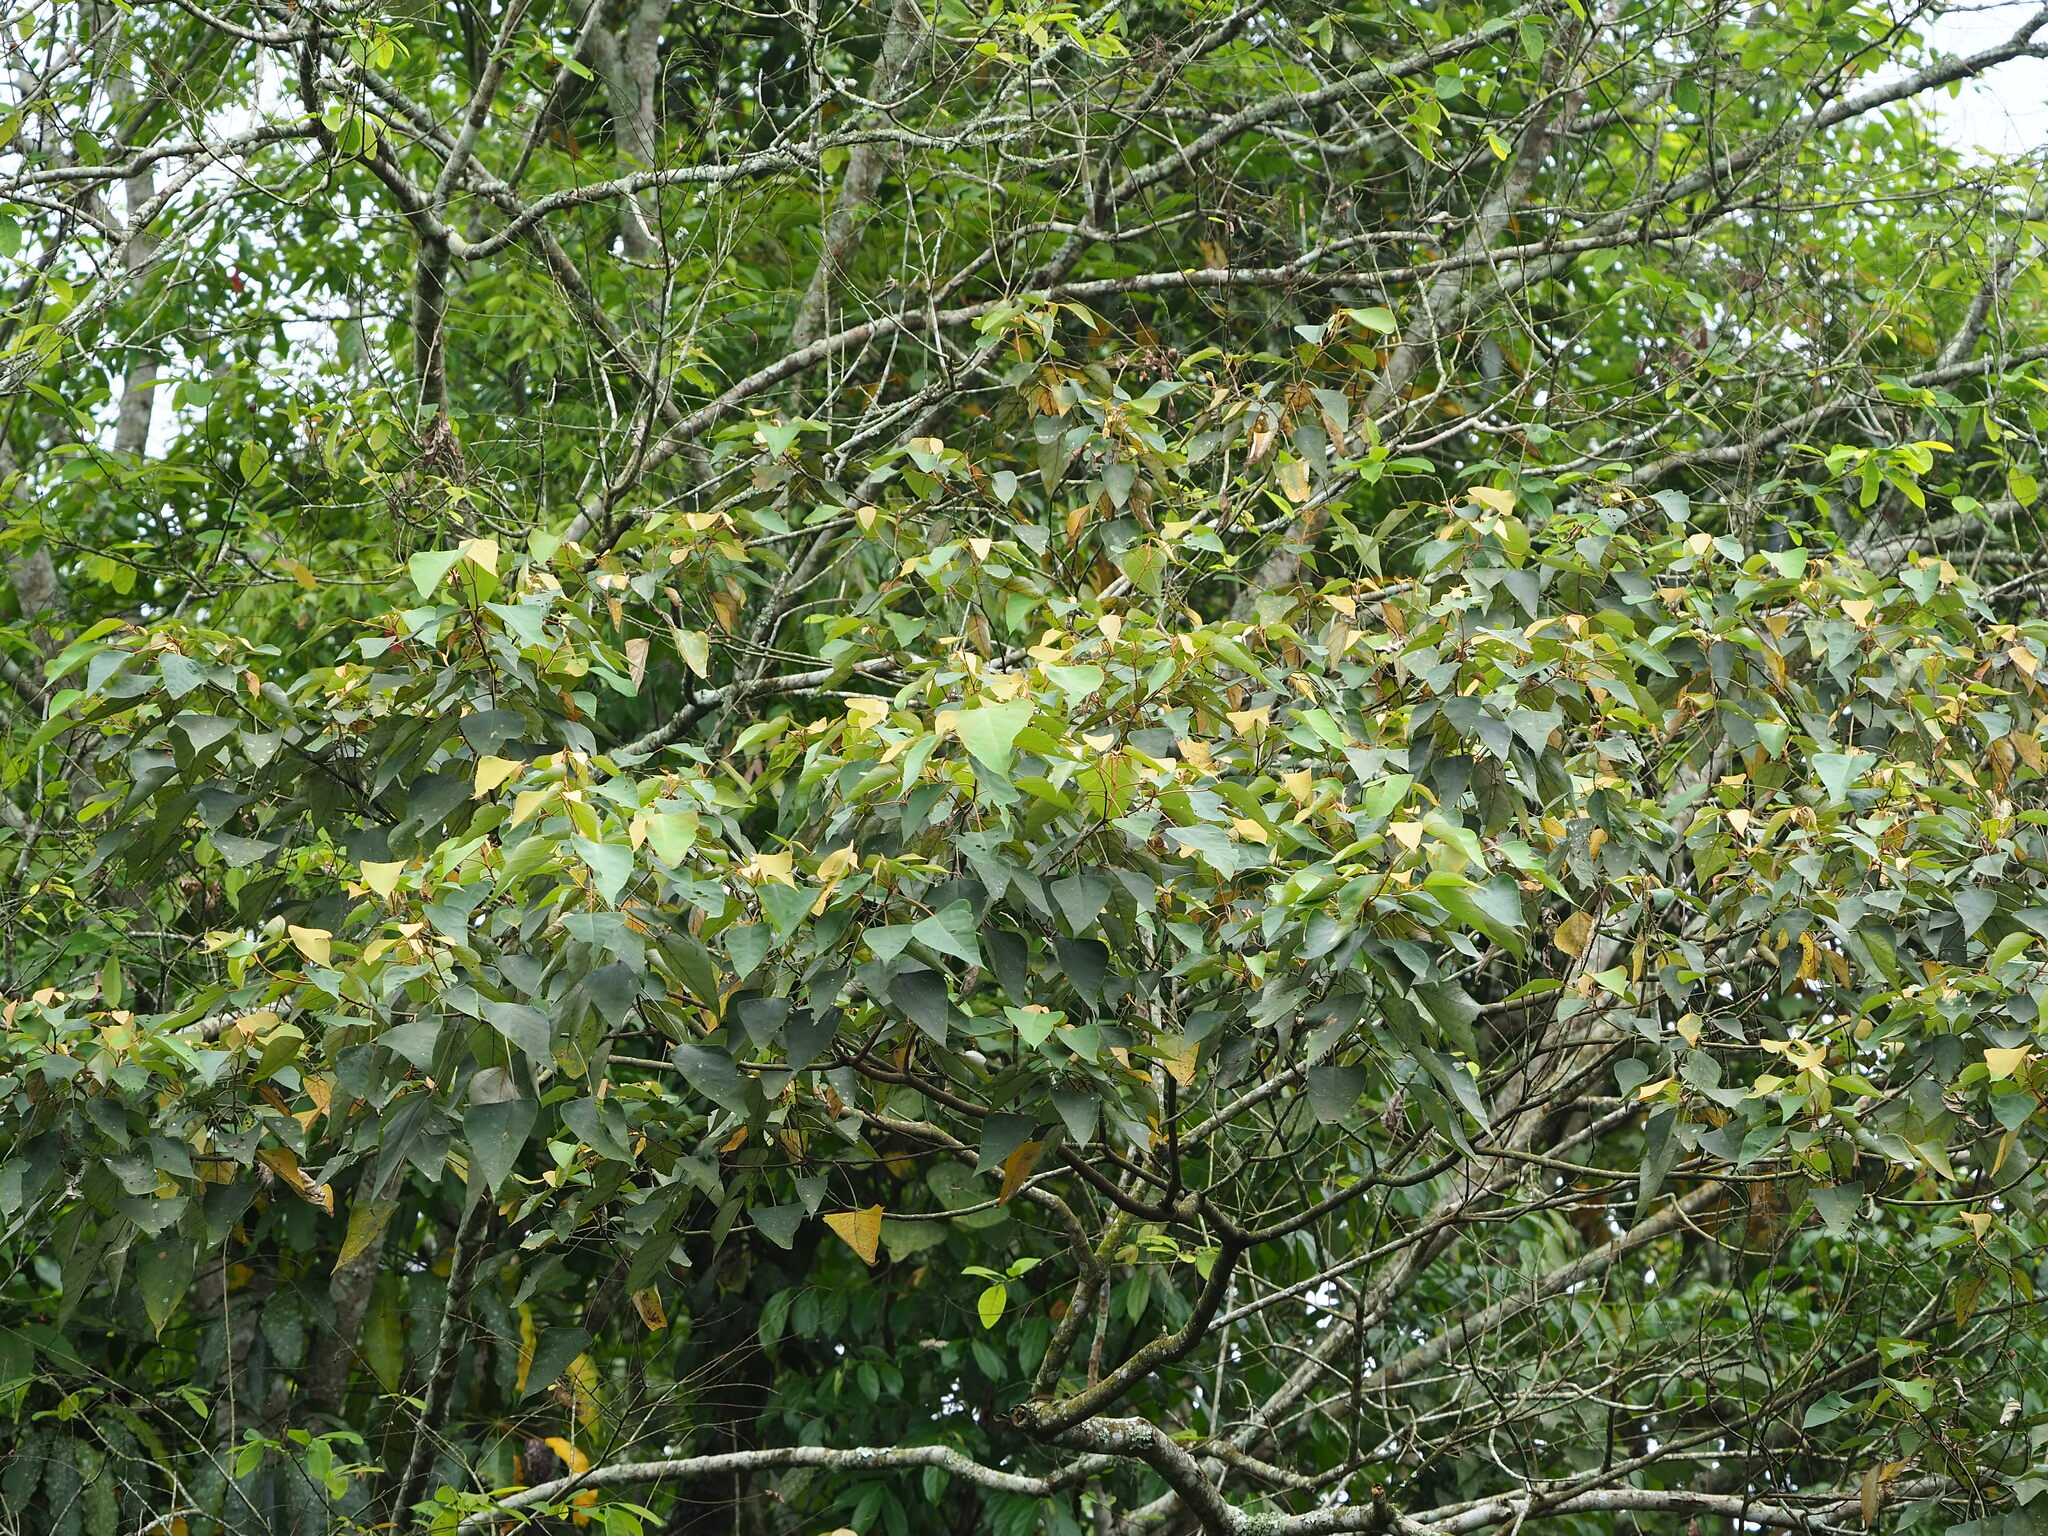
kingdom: Plantae
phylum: Tracheophyta
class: Magnoliopsida
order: Malpighiales
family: Euphorbiaceae
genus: Mallotus
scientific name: Mallotus paniculatus
